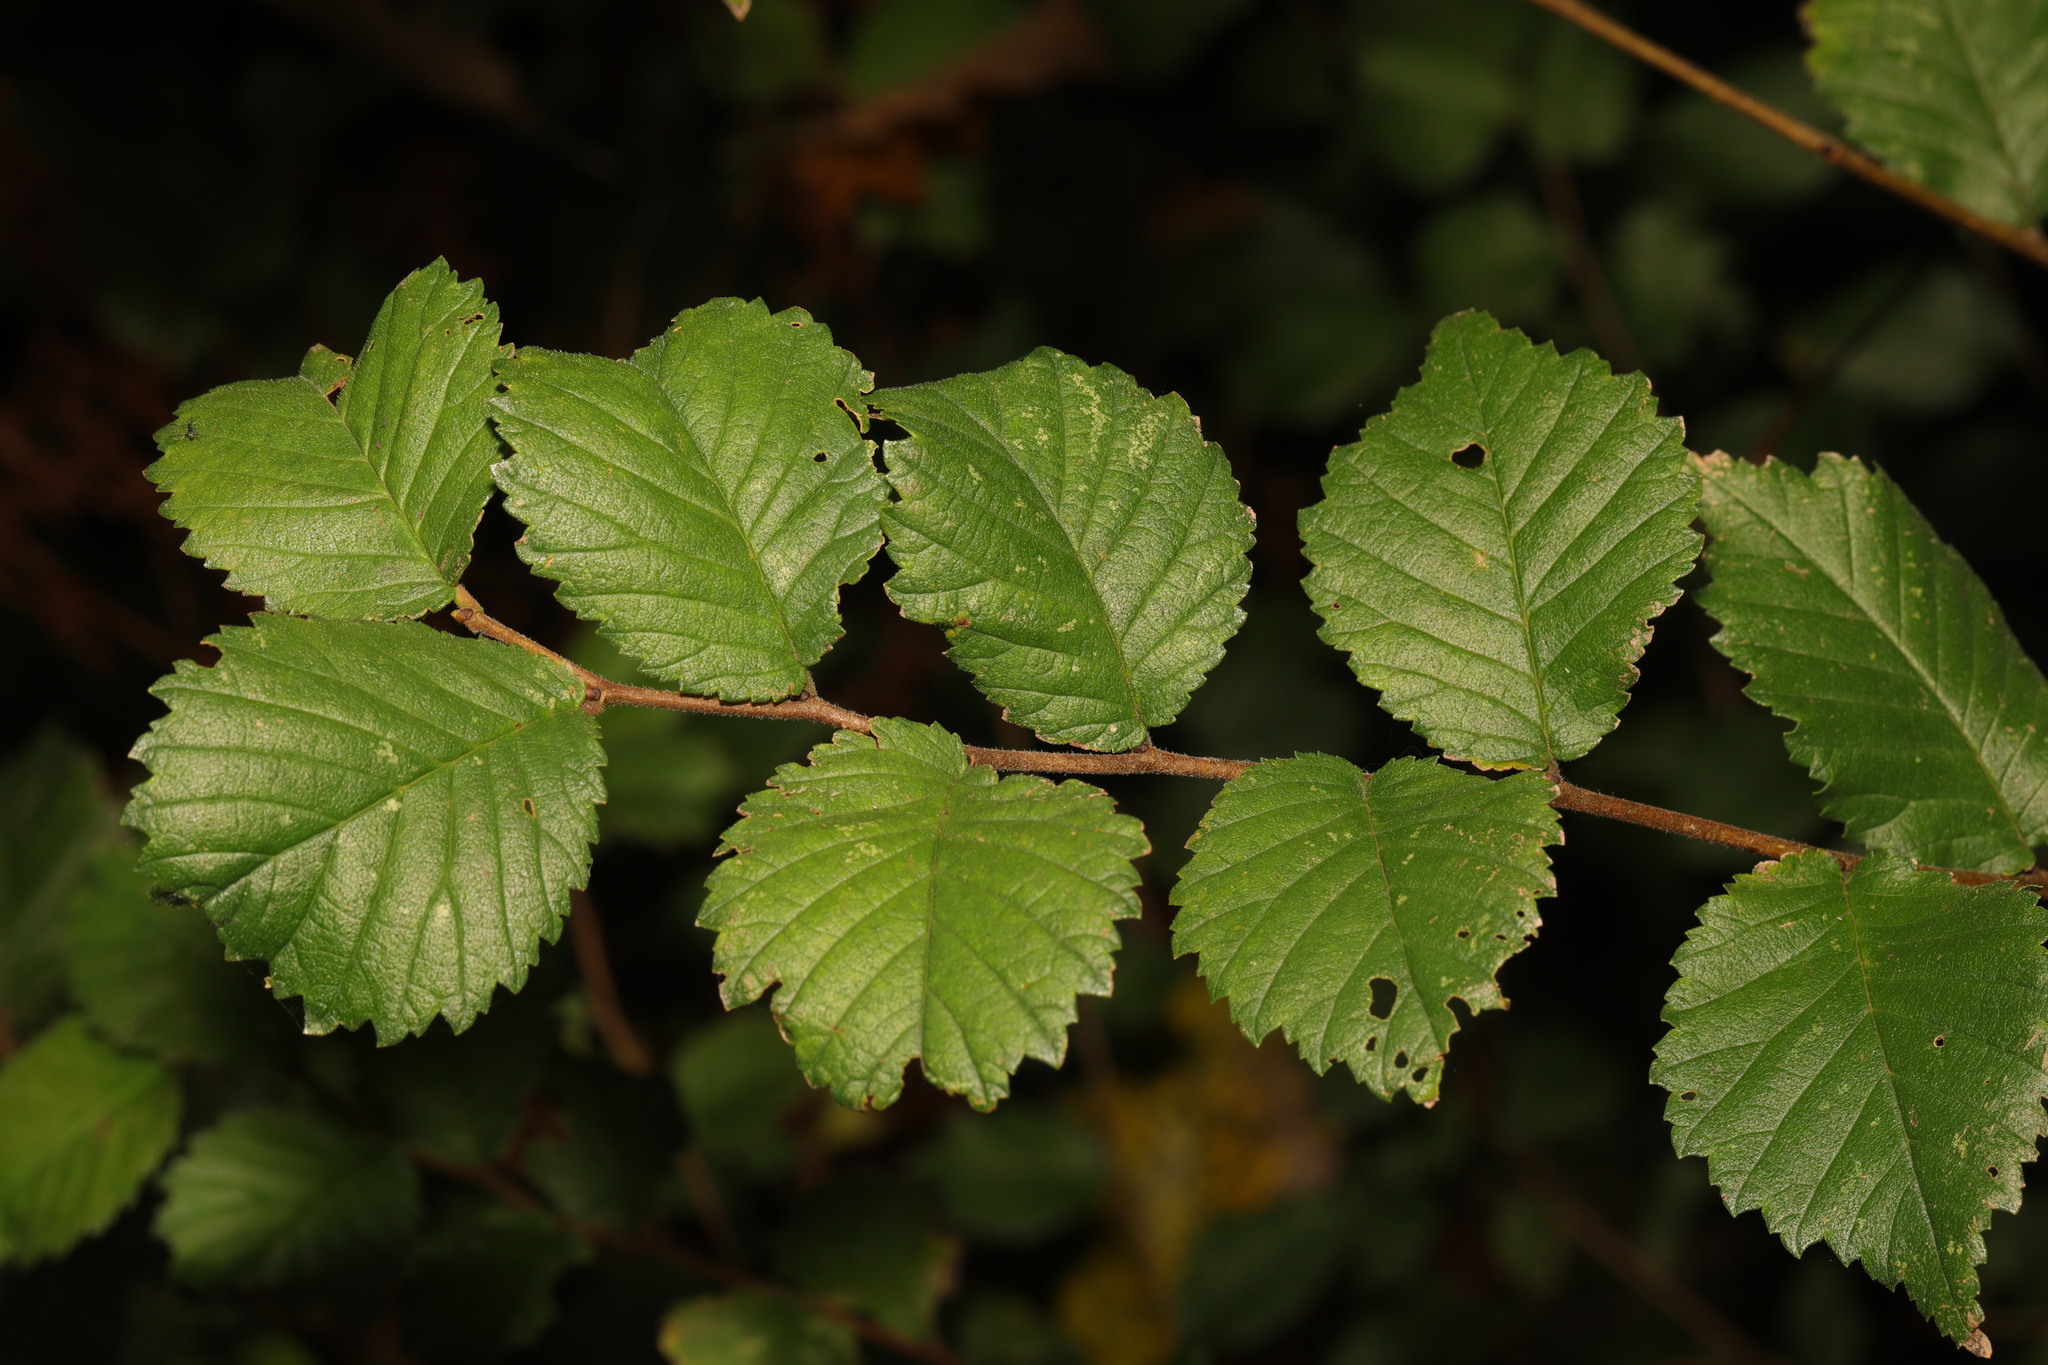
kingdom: Plantae
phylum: Tracheophyta
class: Magnoliopsida
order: Rosales
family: Ulmaceae
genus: Ulmus
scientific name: Ulmus minor
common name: Small-leaved elm
